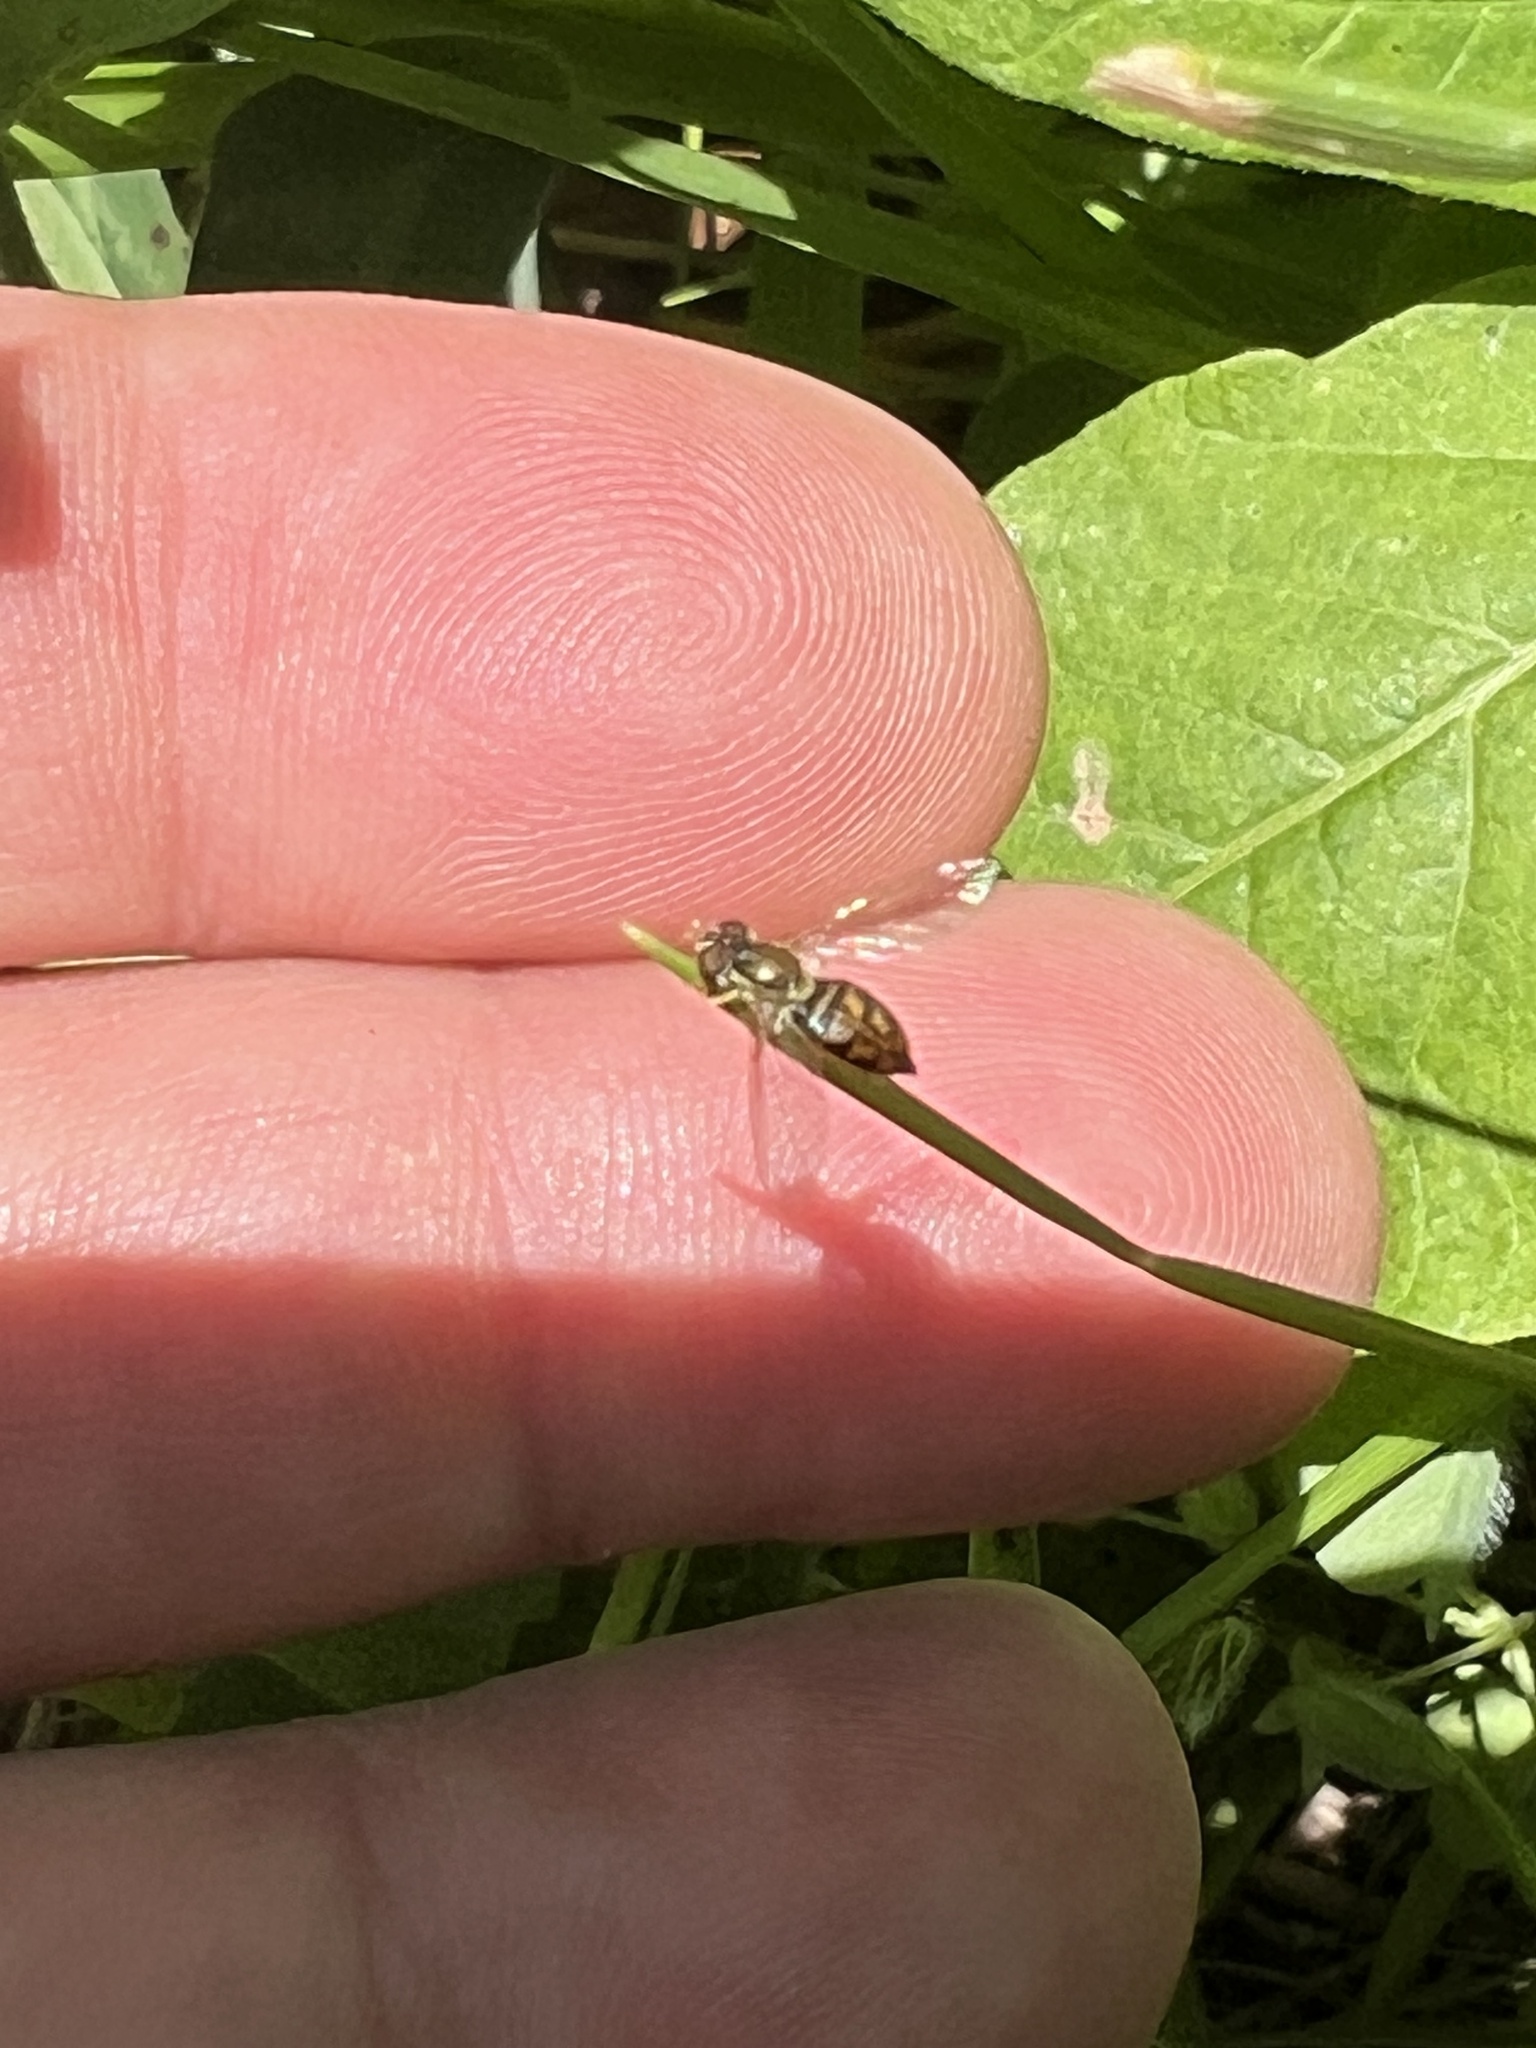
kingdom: Animalia
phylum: Arthropoda
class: Insecta
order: Diptera
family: Syrphidae
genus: Toxomerus
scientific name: Toxomerus marginatus
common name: Syrphid fly
